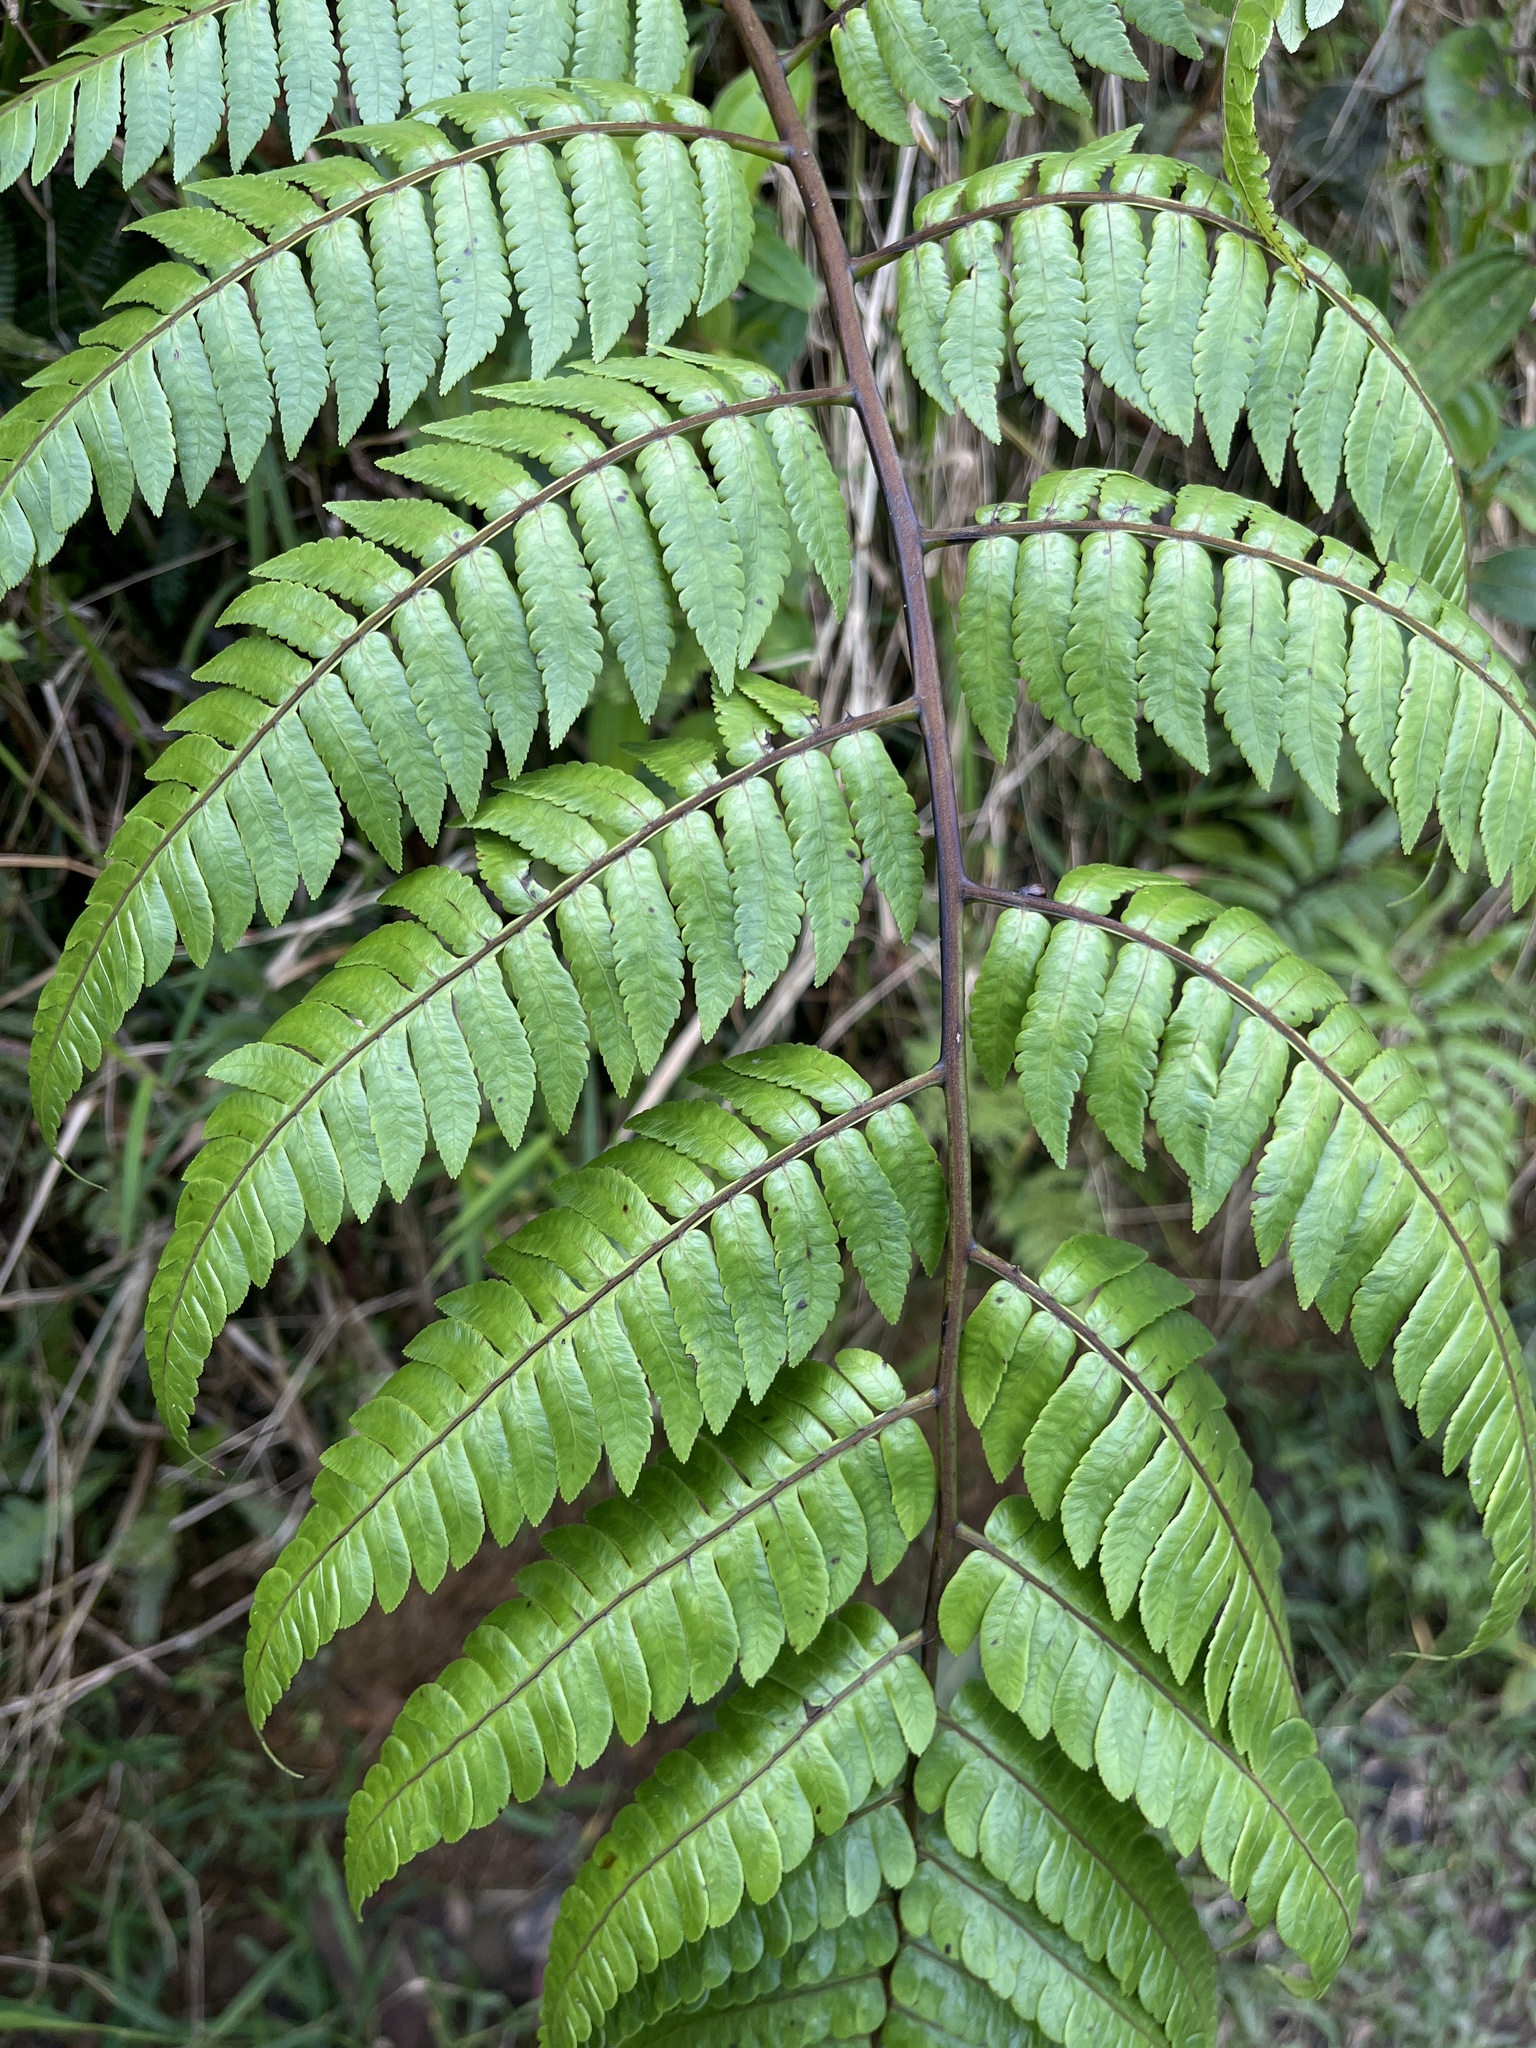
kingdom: Plantae
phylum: Tracheophyta
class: Polypodiopsida
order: Cyatheales
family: Cyatheaceae
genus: Cyathea
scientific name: Cyathea borinquena
